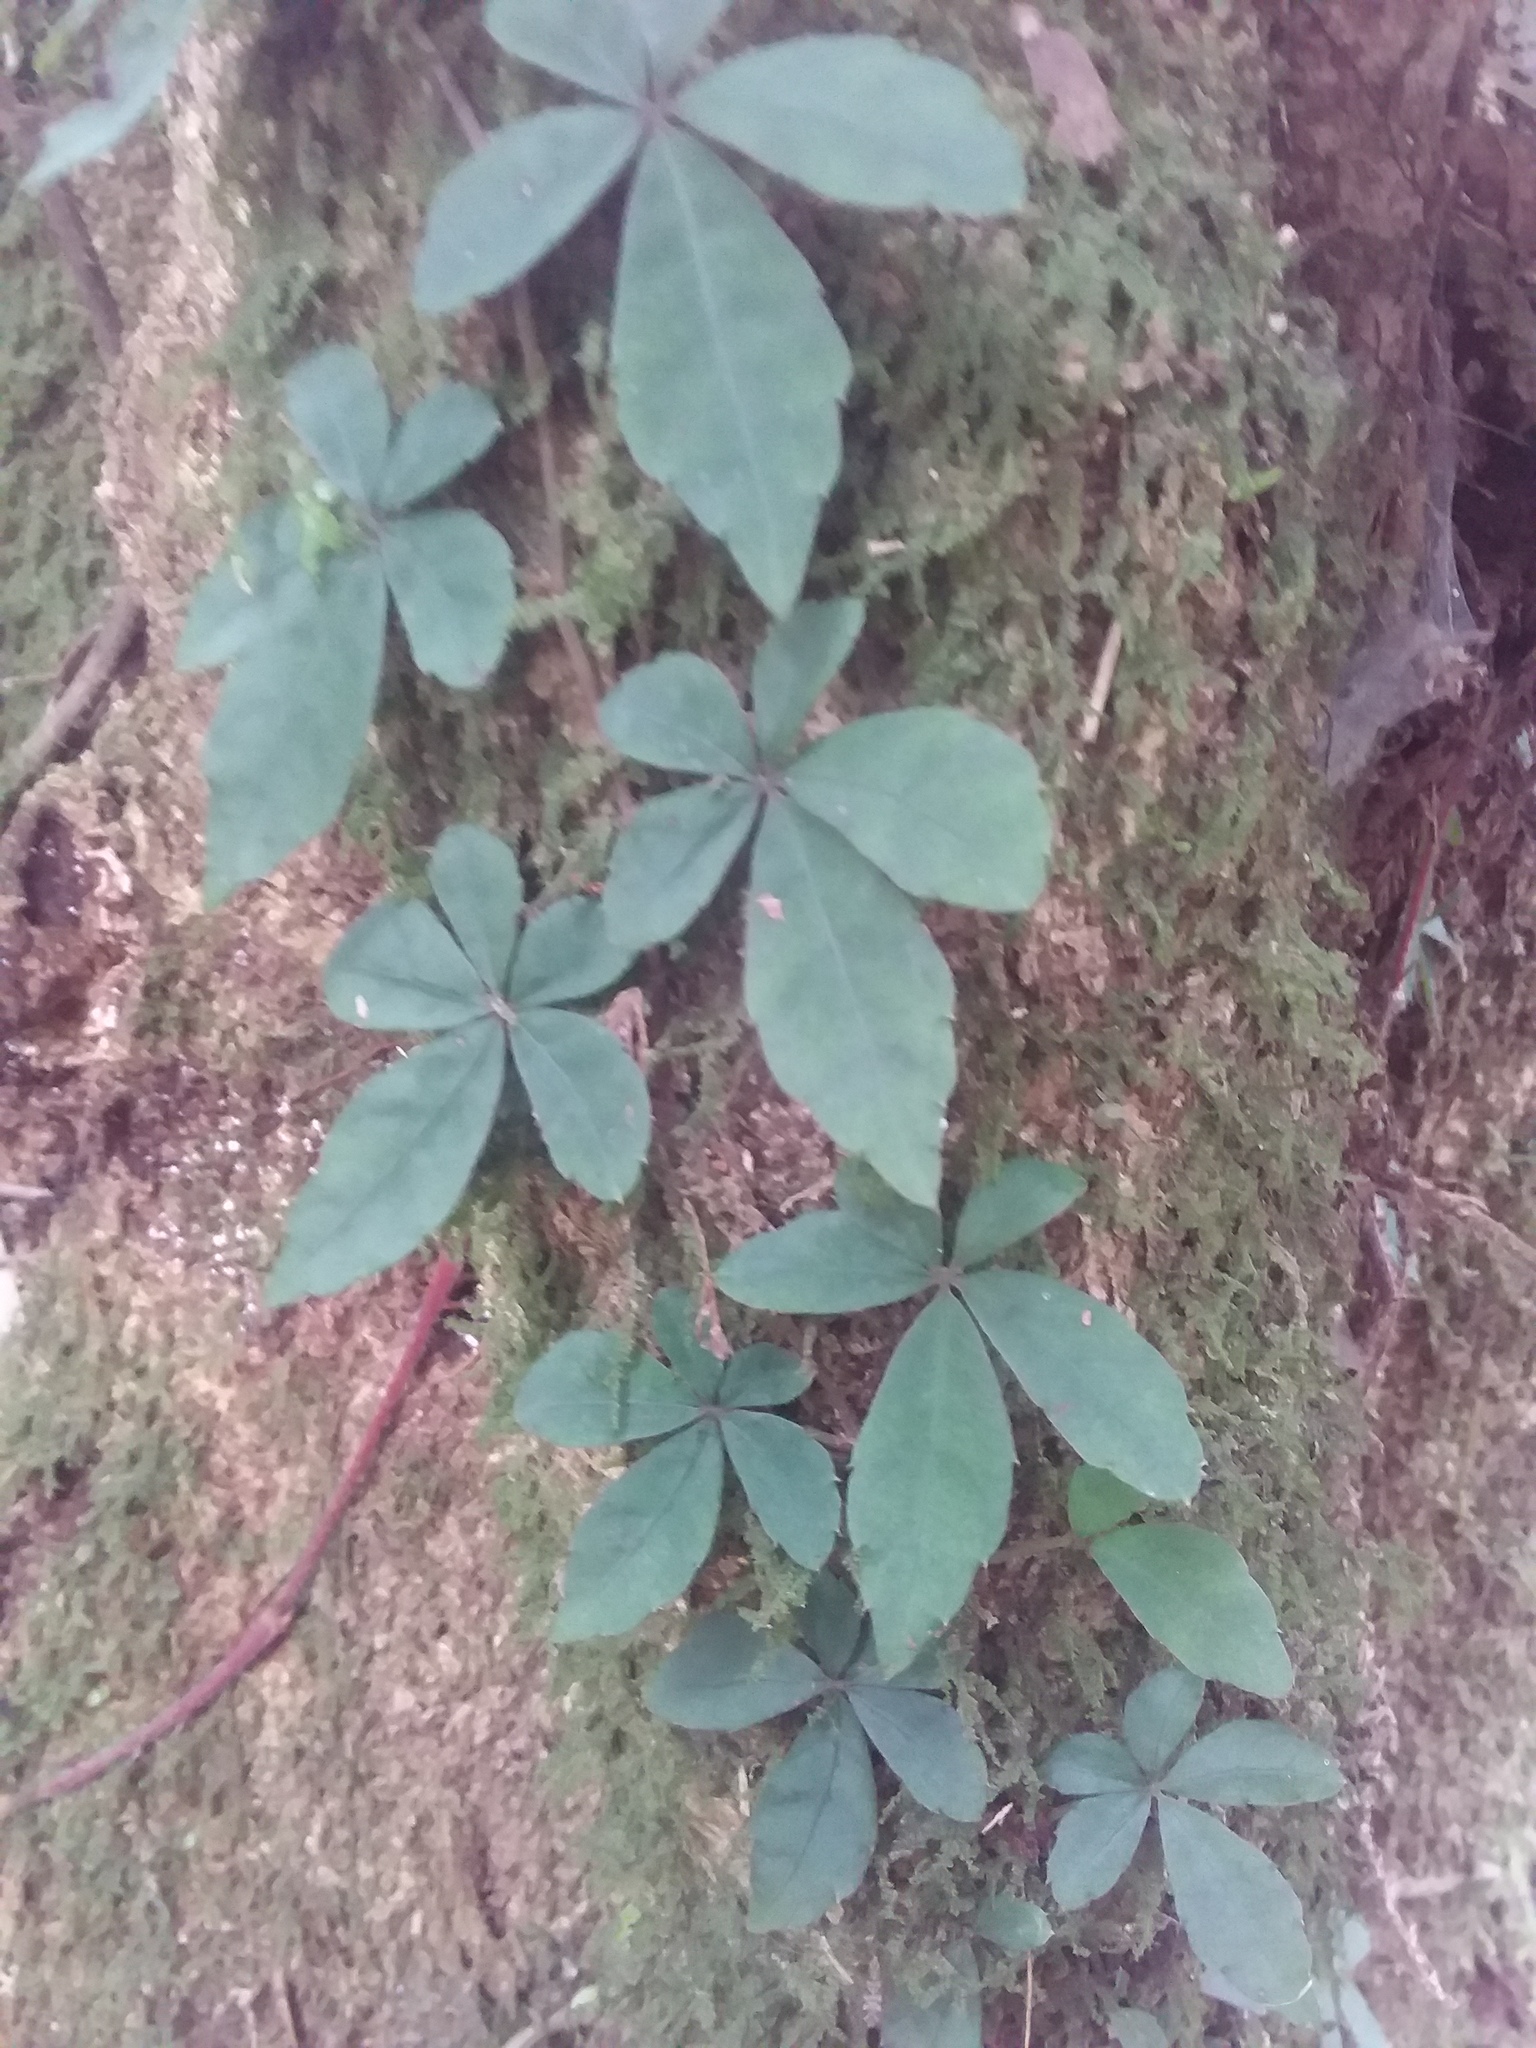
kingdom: Plantae
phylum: Tracheophyta
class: Magnoliopsida
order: Vitales
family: Vitaceae
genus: Tetrastigma
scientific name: Tetrastigma obtectum
